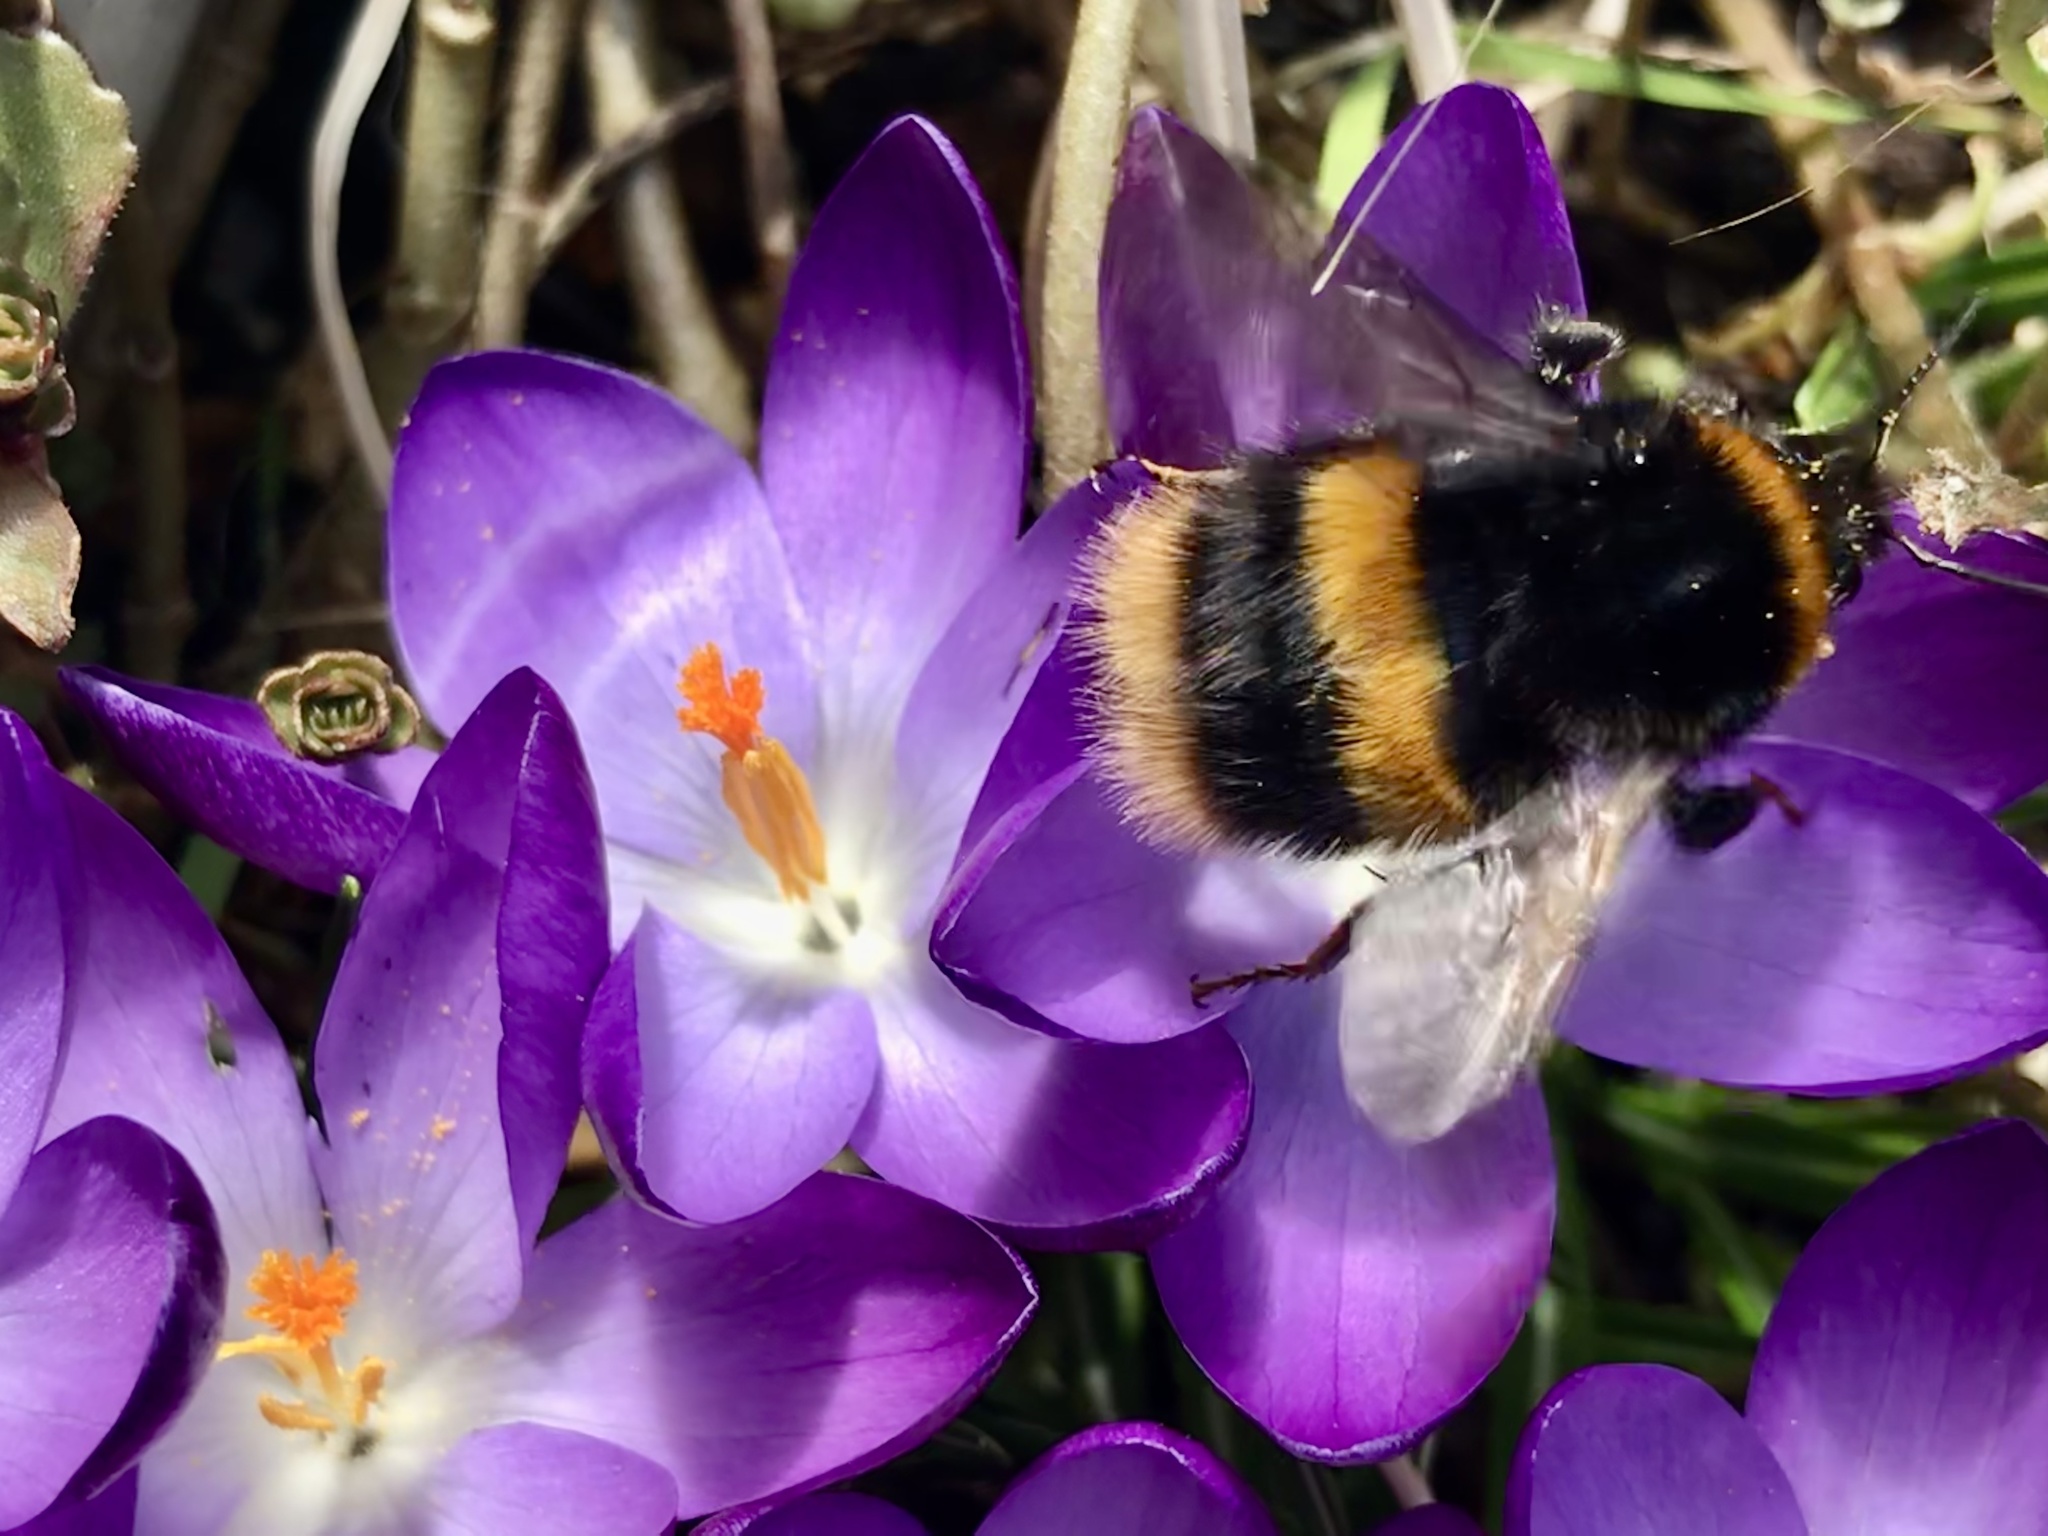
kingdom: Animalia
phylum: Arthropoda
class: Insecta
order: Hymenoptera
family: Apidae
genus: Bombus
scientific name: Bombus terrestris
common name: Buff-tailed bumblebee
